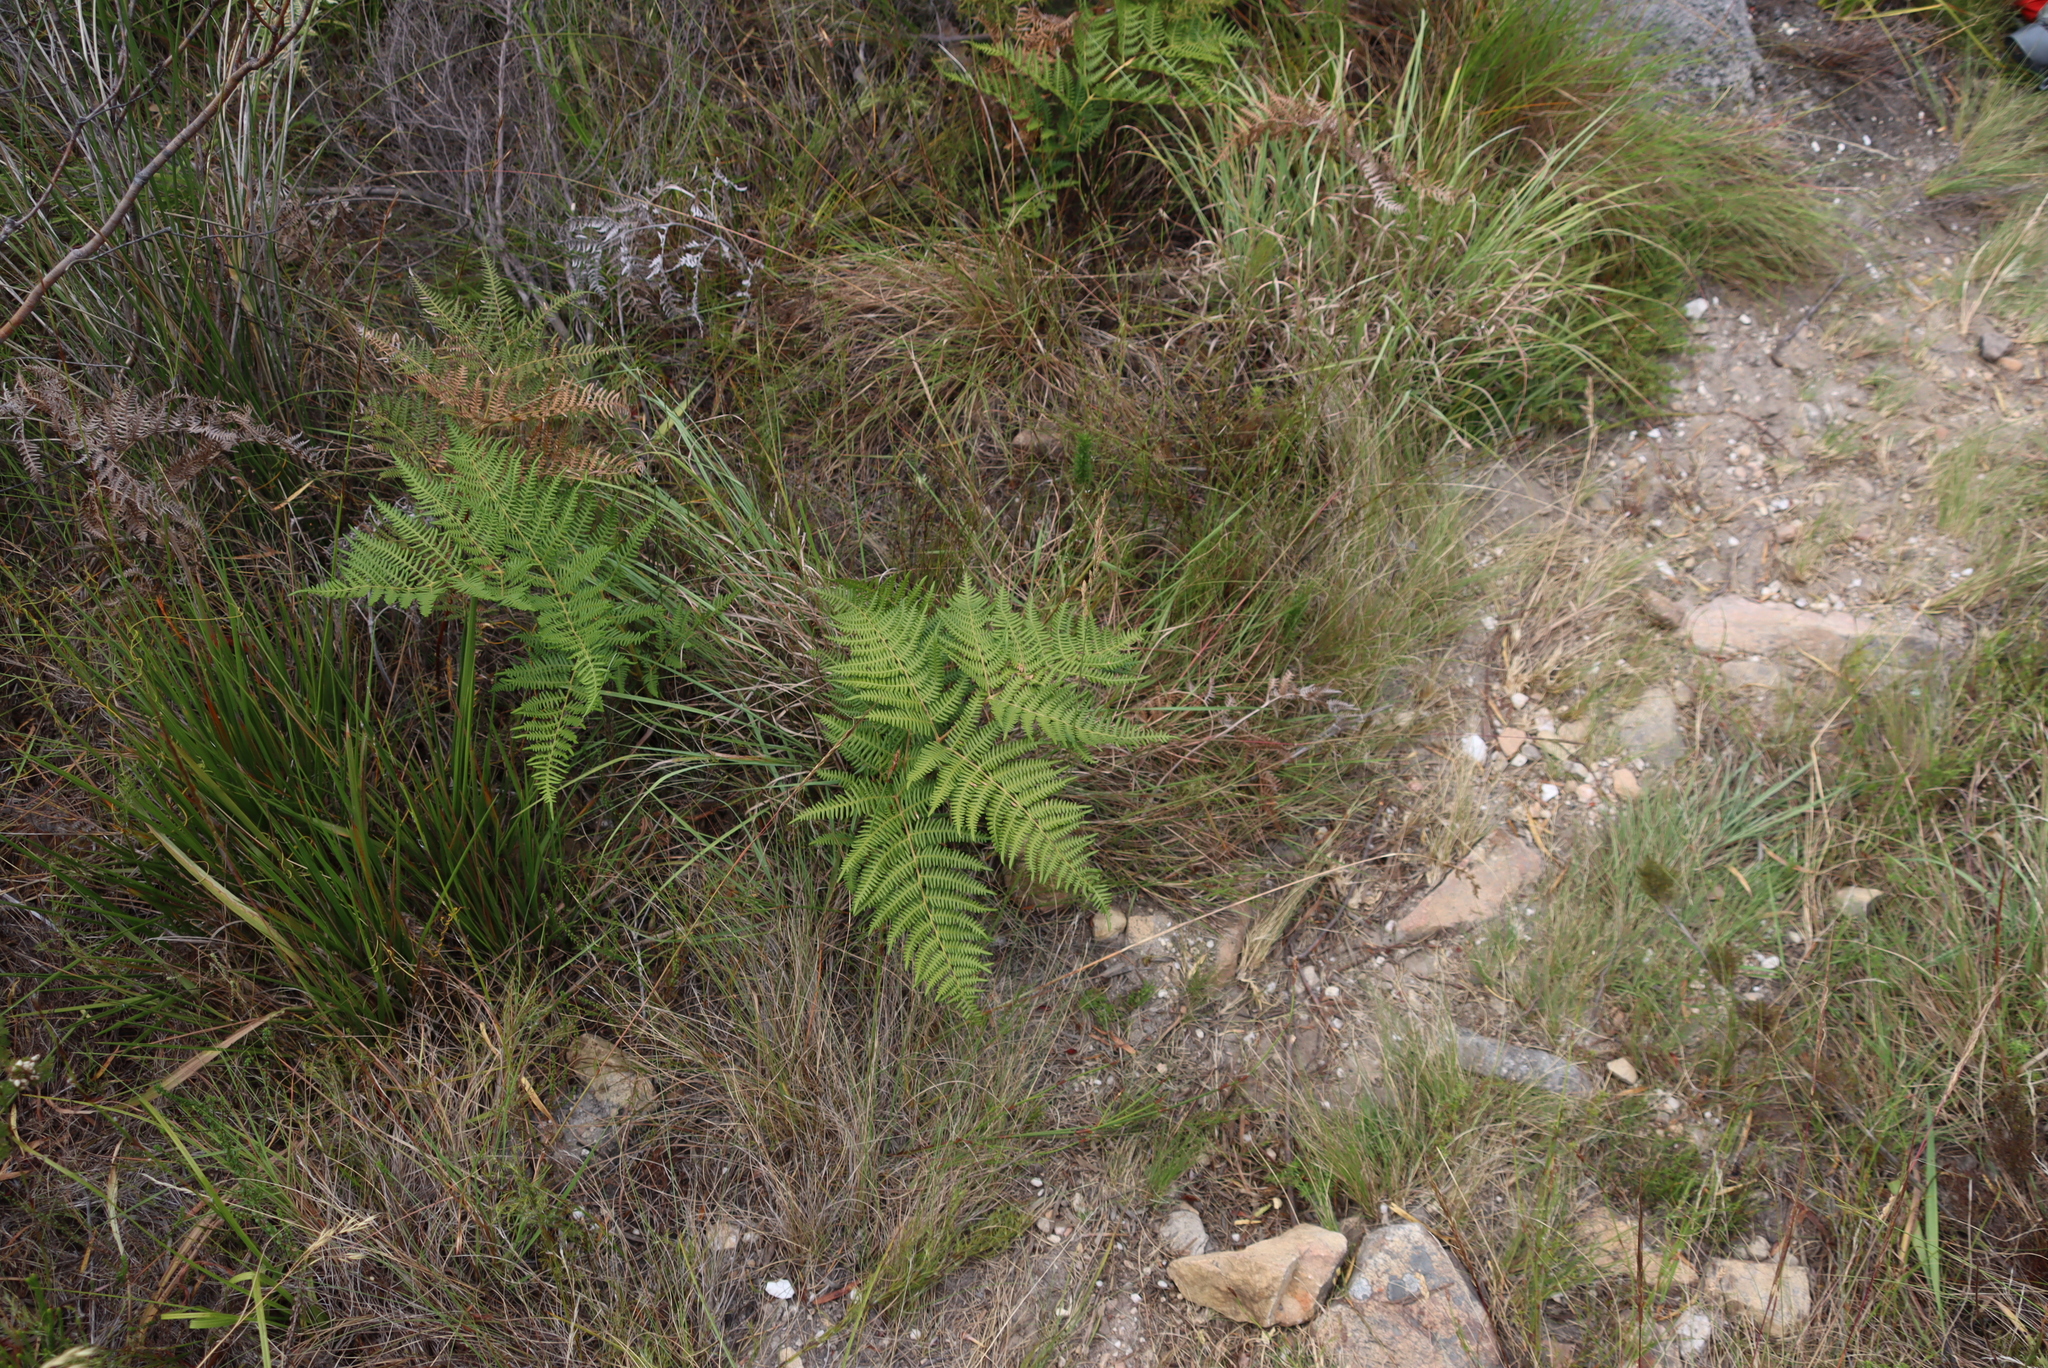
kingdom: Plantae
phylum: Tracheophyta
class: Polypodiopsida
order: Polypodiales
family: Dennstaedtiaceae
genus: Pteridium
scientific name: Pteridium aquilinum
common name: Bracken
